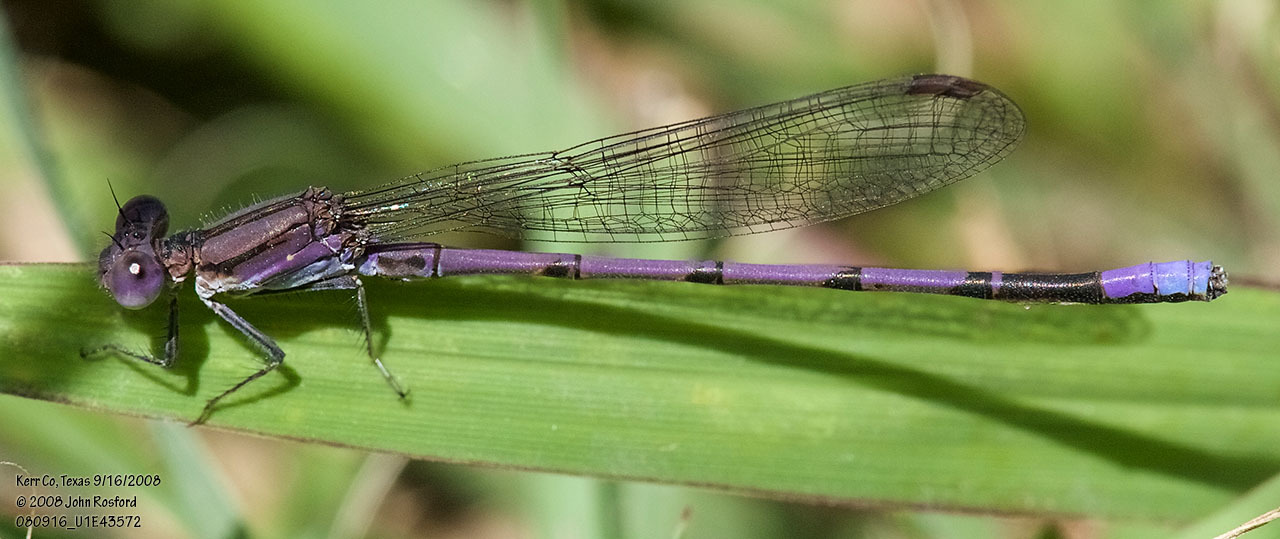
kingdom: Animalia
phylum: Arthropoda
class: Insecta
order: Odonata
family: Coenagrionidae
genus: Argia
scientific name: Argia fumipennis
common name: Variable dancer
